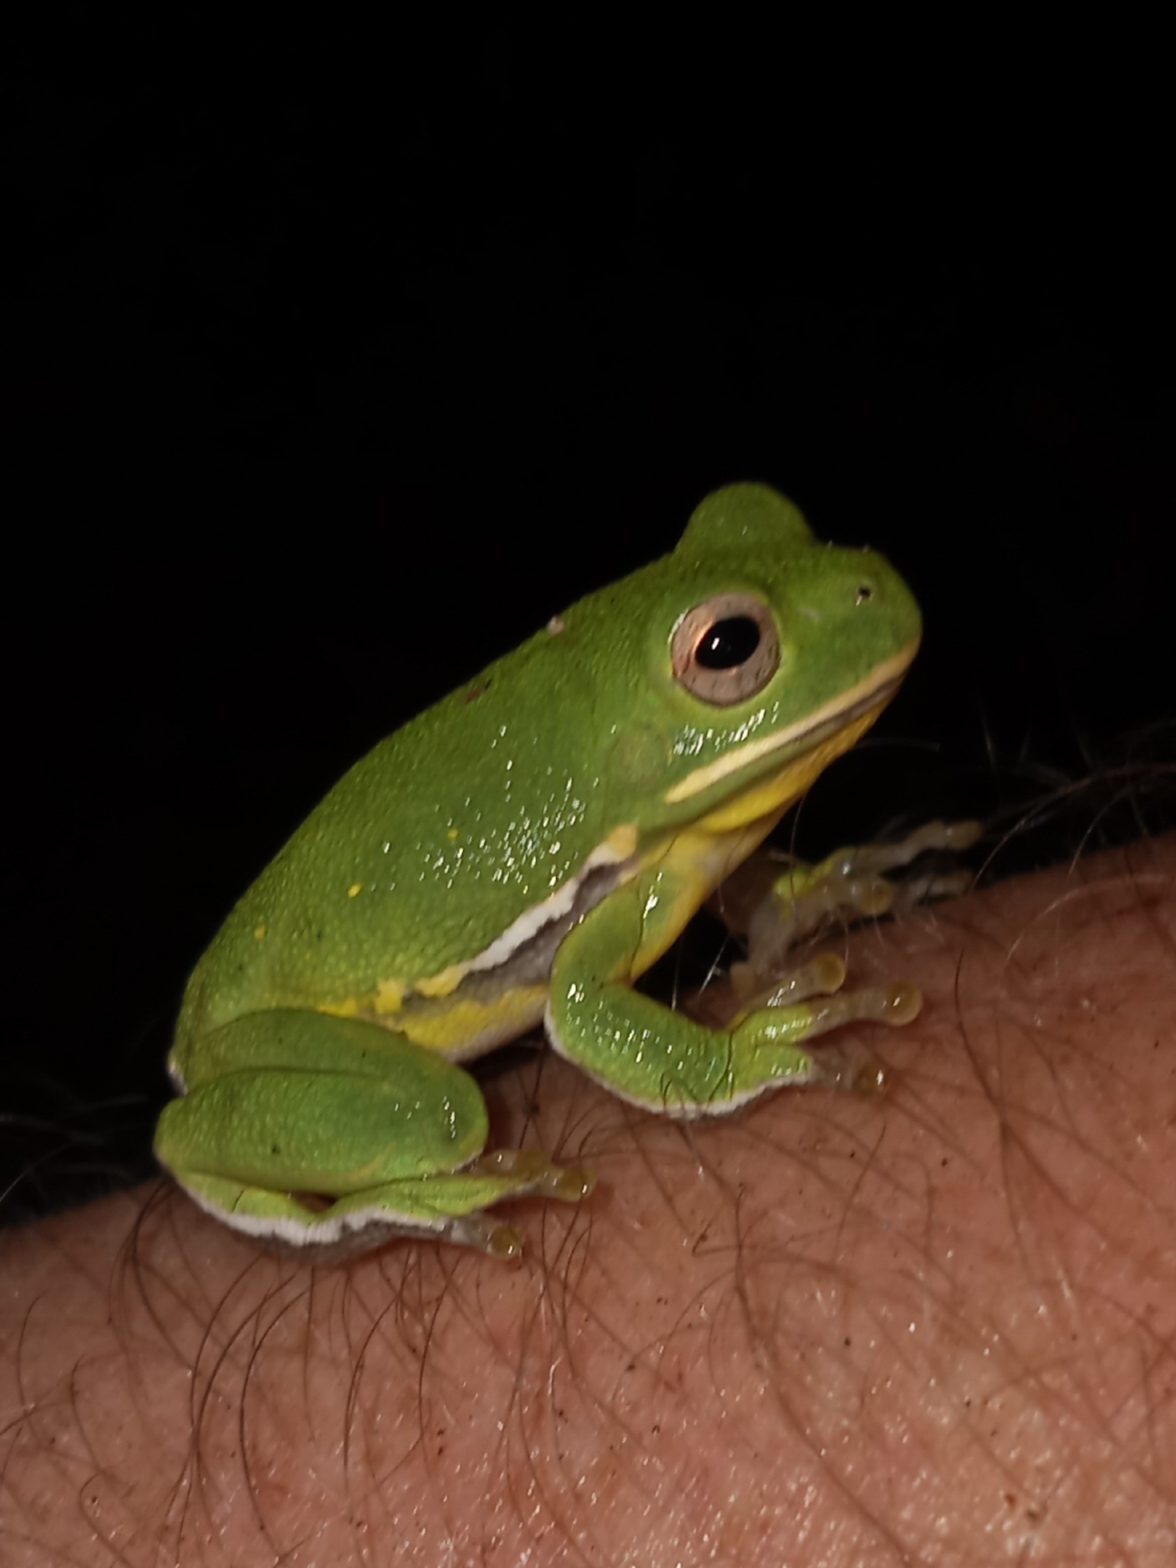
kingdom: Animalia
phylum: Chordata
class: Amphibia
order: Anura
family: Hylidae
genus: Dryophytes
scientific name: Dryophytes gratiosus
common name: Barking treefrog
